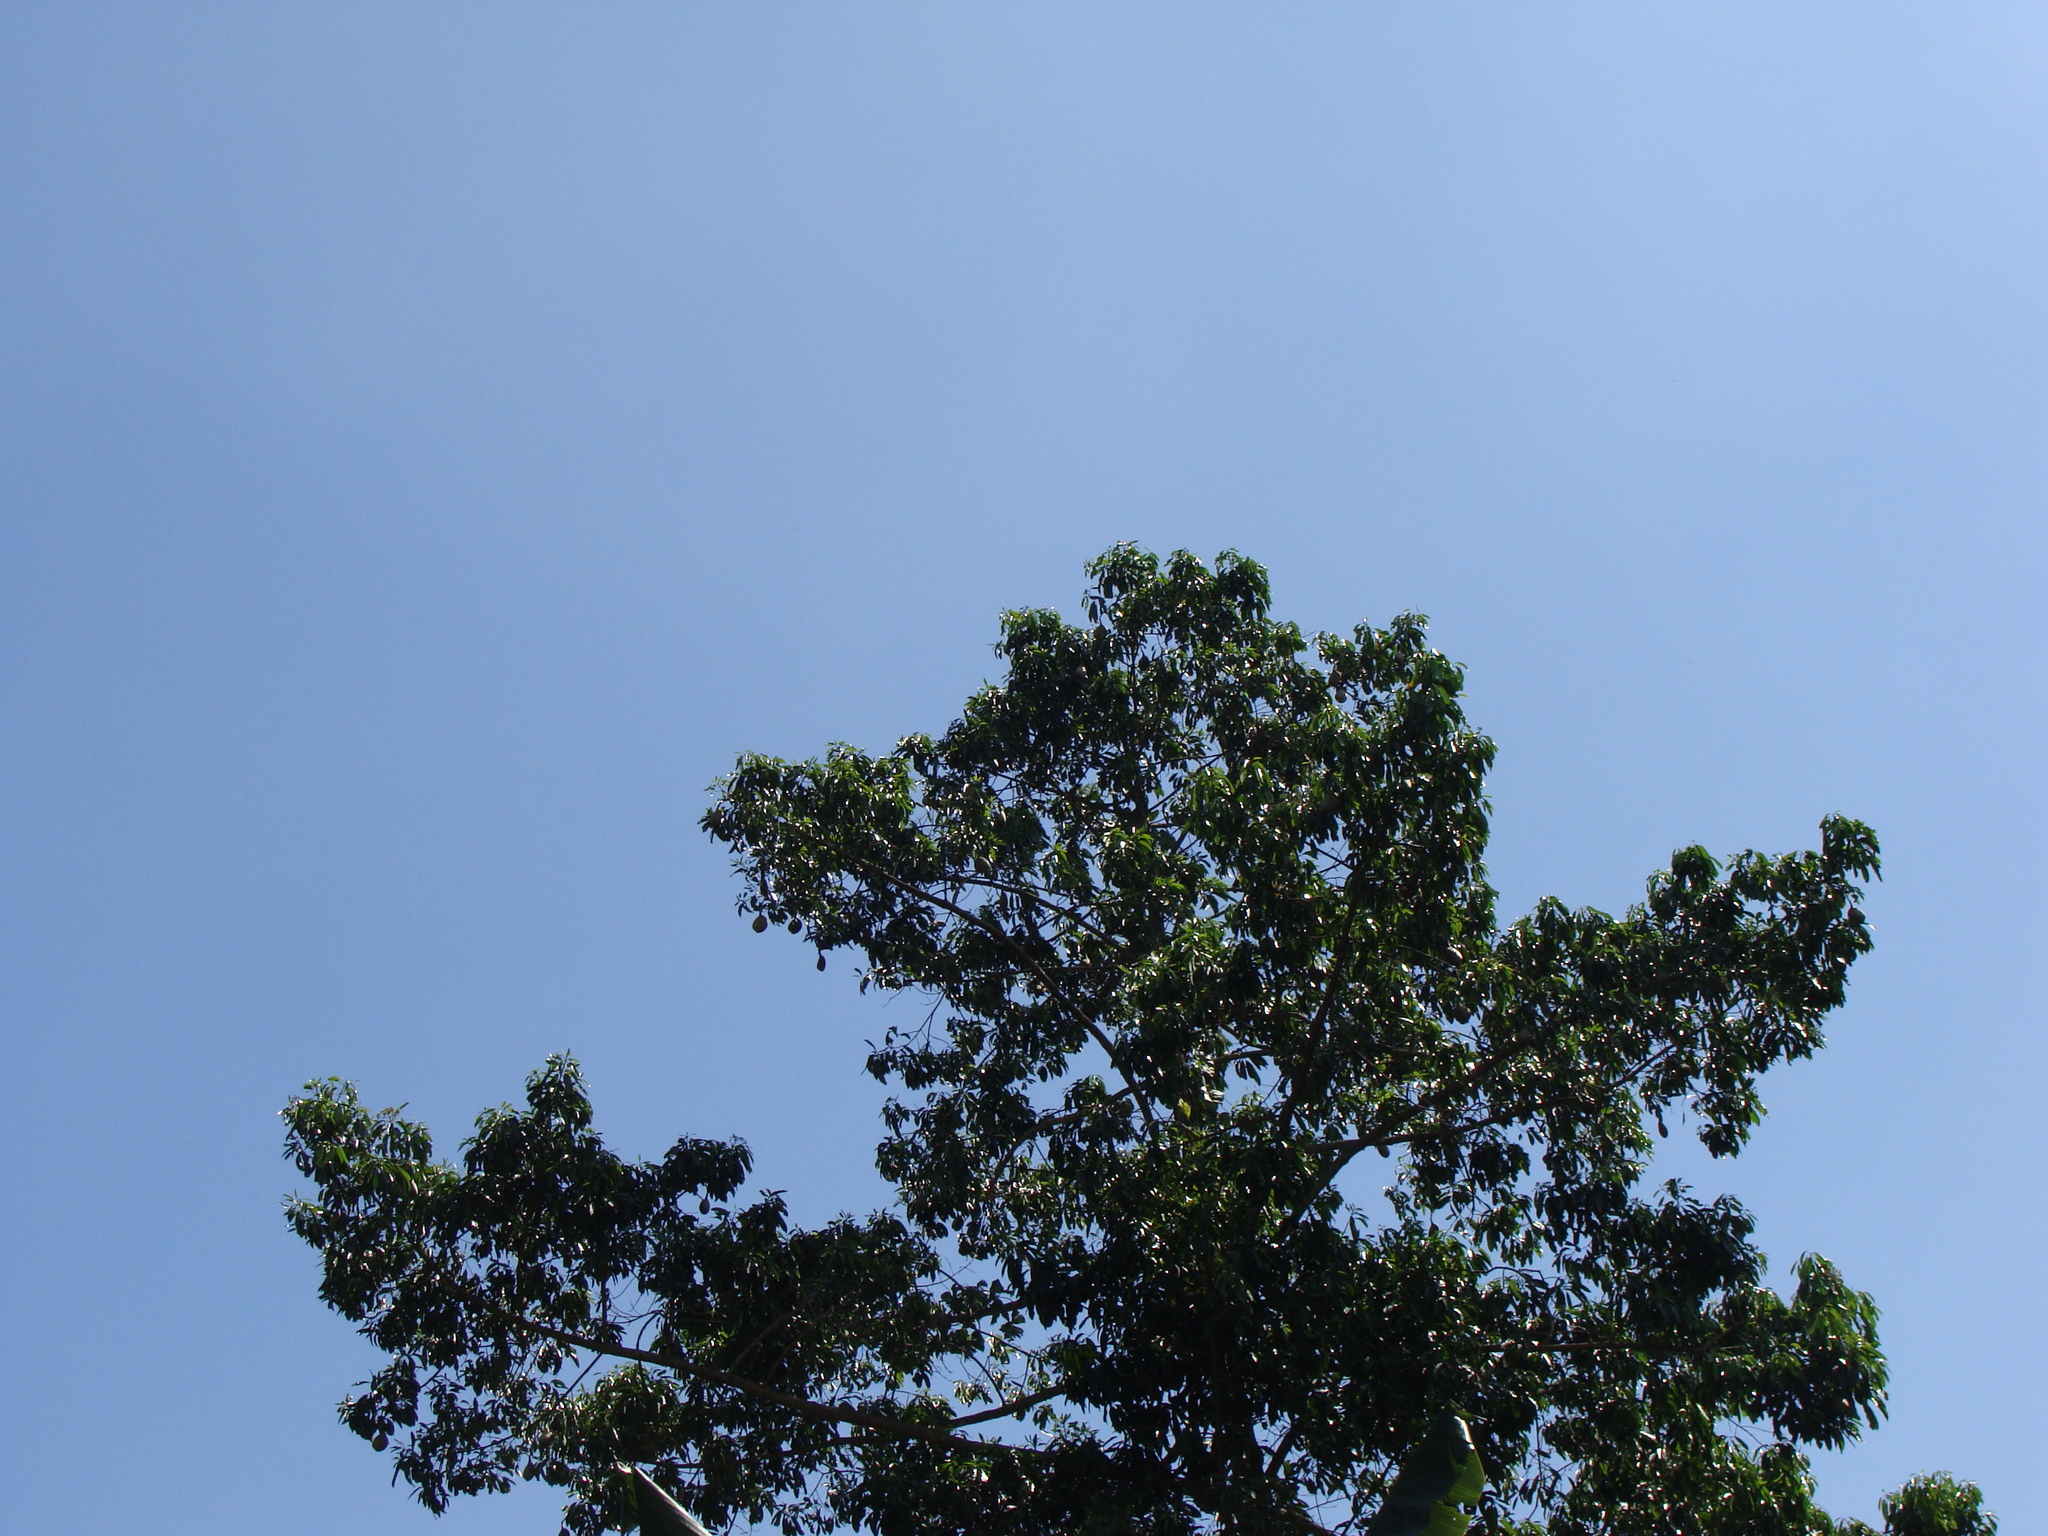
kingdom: Plantae
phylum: Tracheophyta
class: Magnoliopsida
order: Gentianales
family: Apocynaceae
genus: Aspidosperma
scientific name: Aspidosperma cruentum
